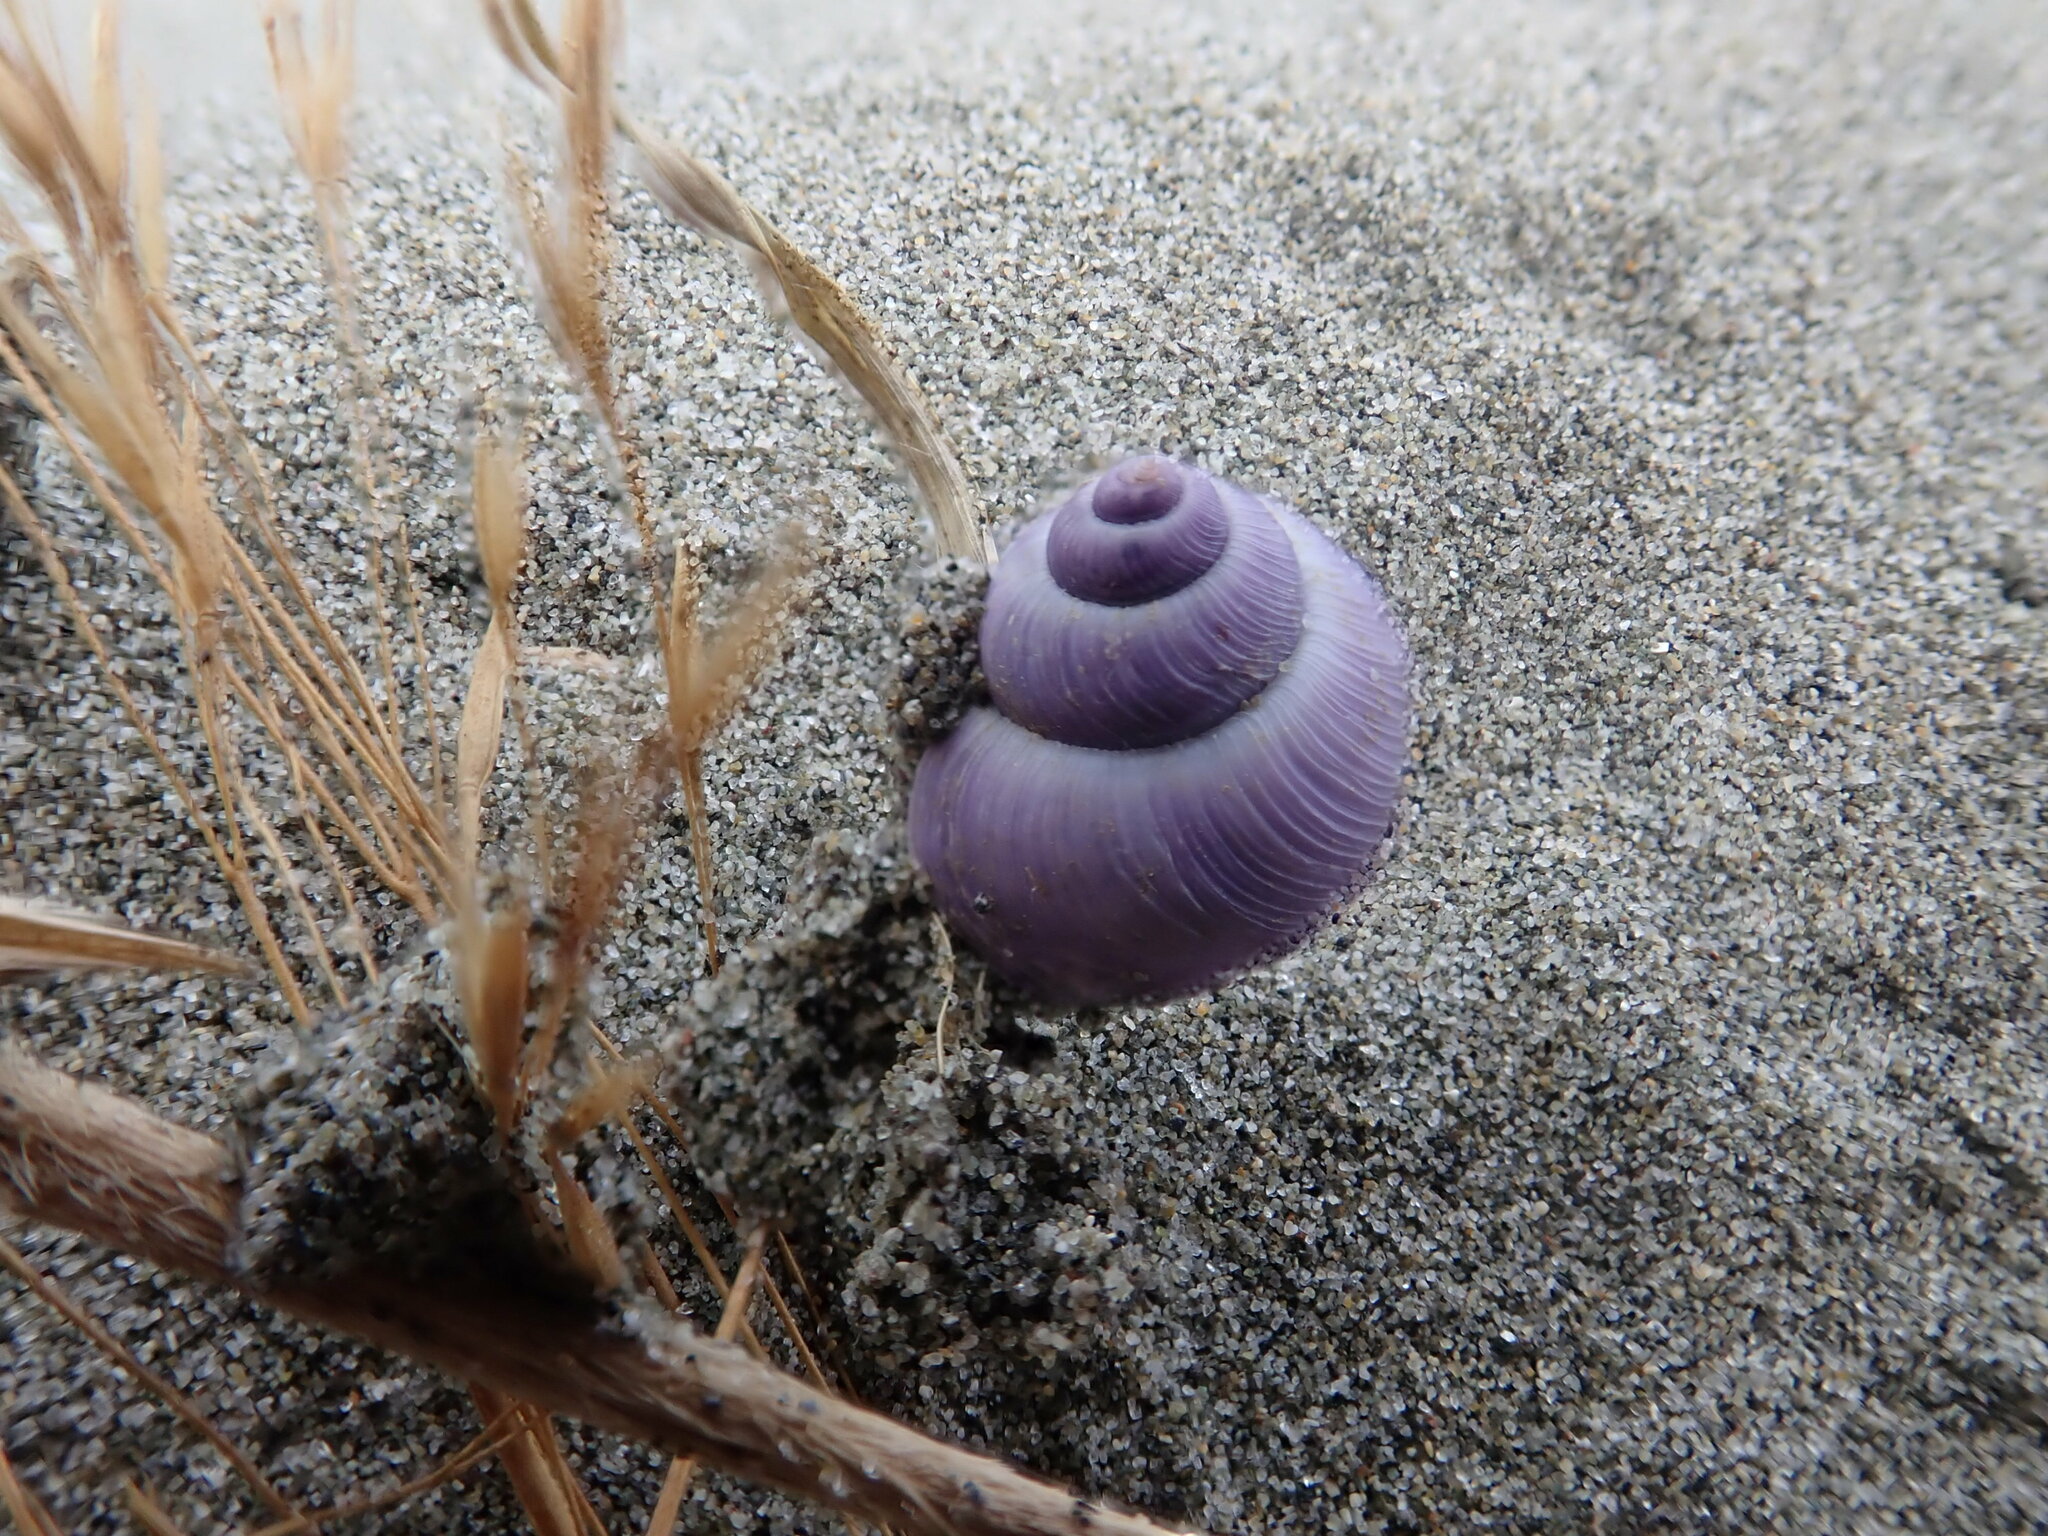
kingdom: Animalia
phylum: Mollusca
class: Gastropoda
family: Epitoniidae
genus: Janthina
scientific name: Janthina exigua
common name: Dwarf janthina
